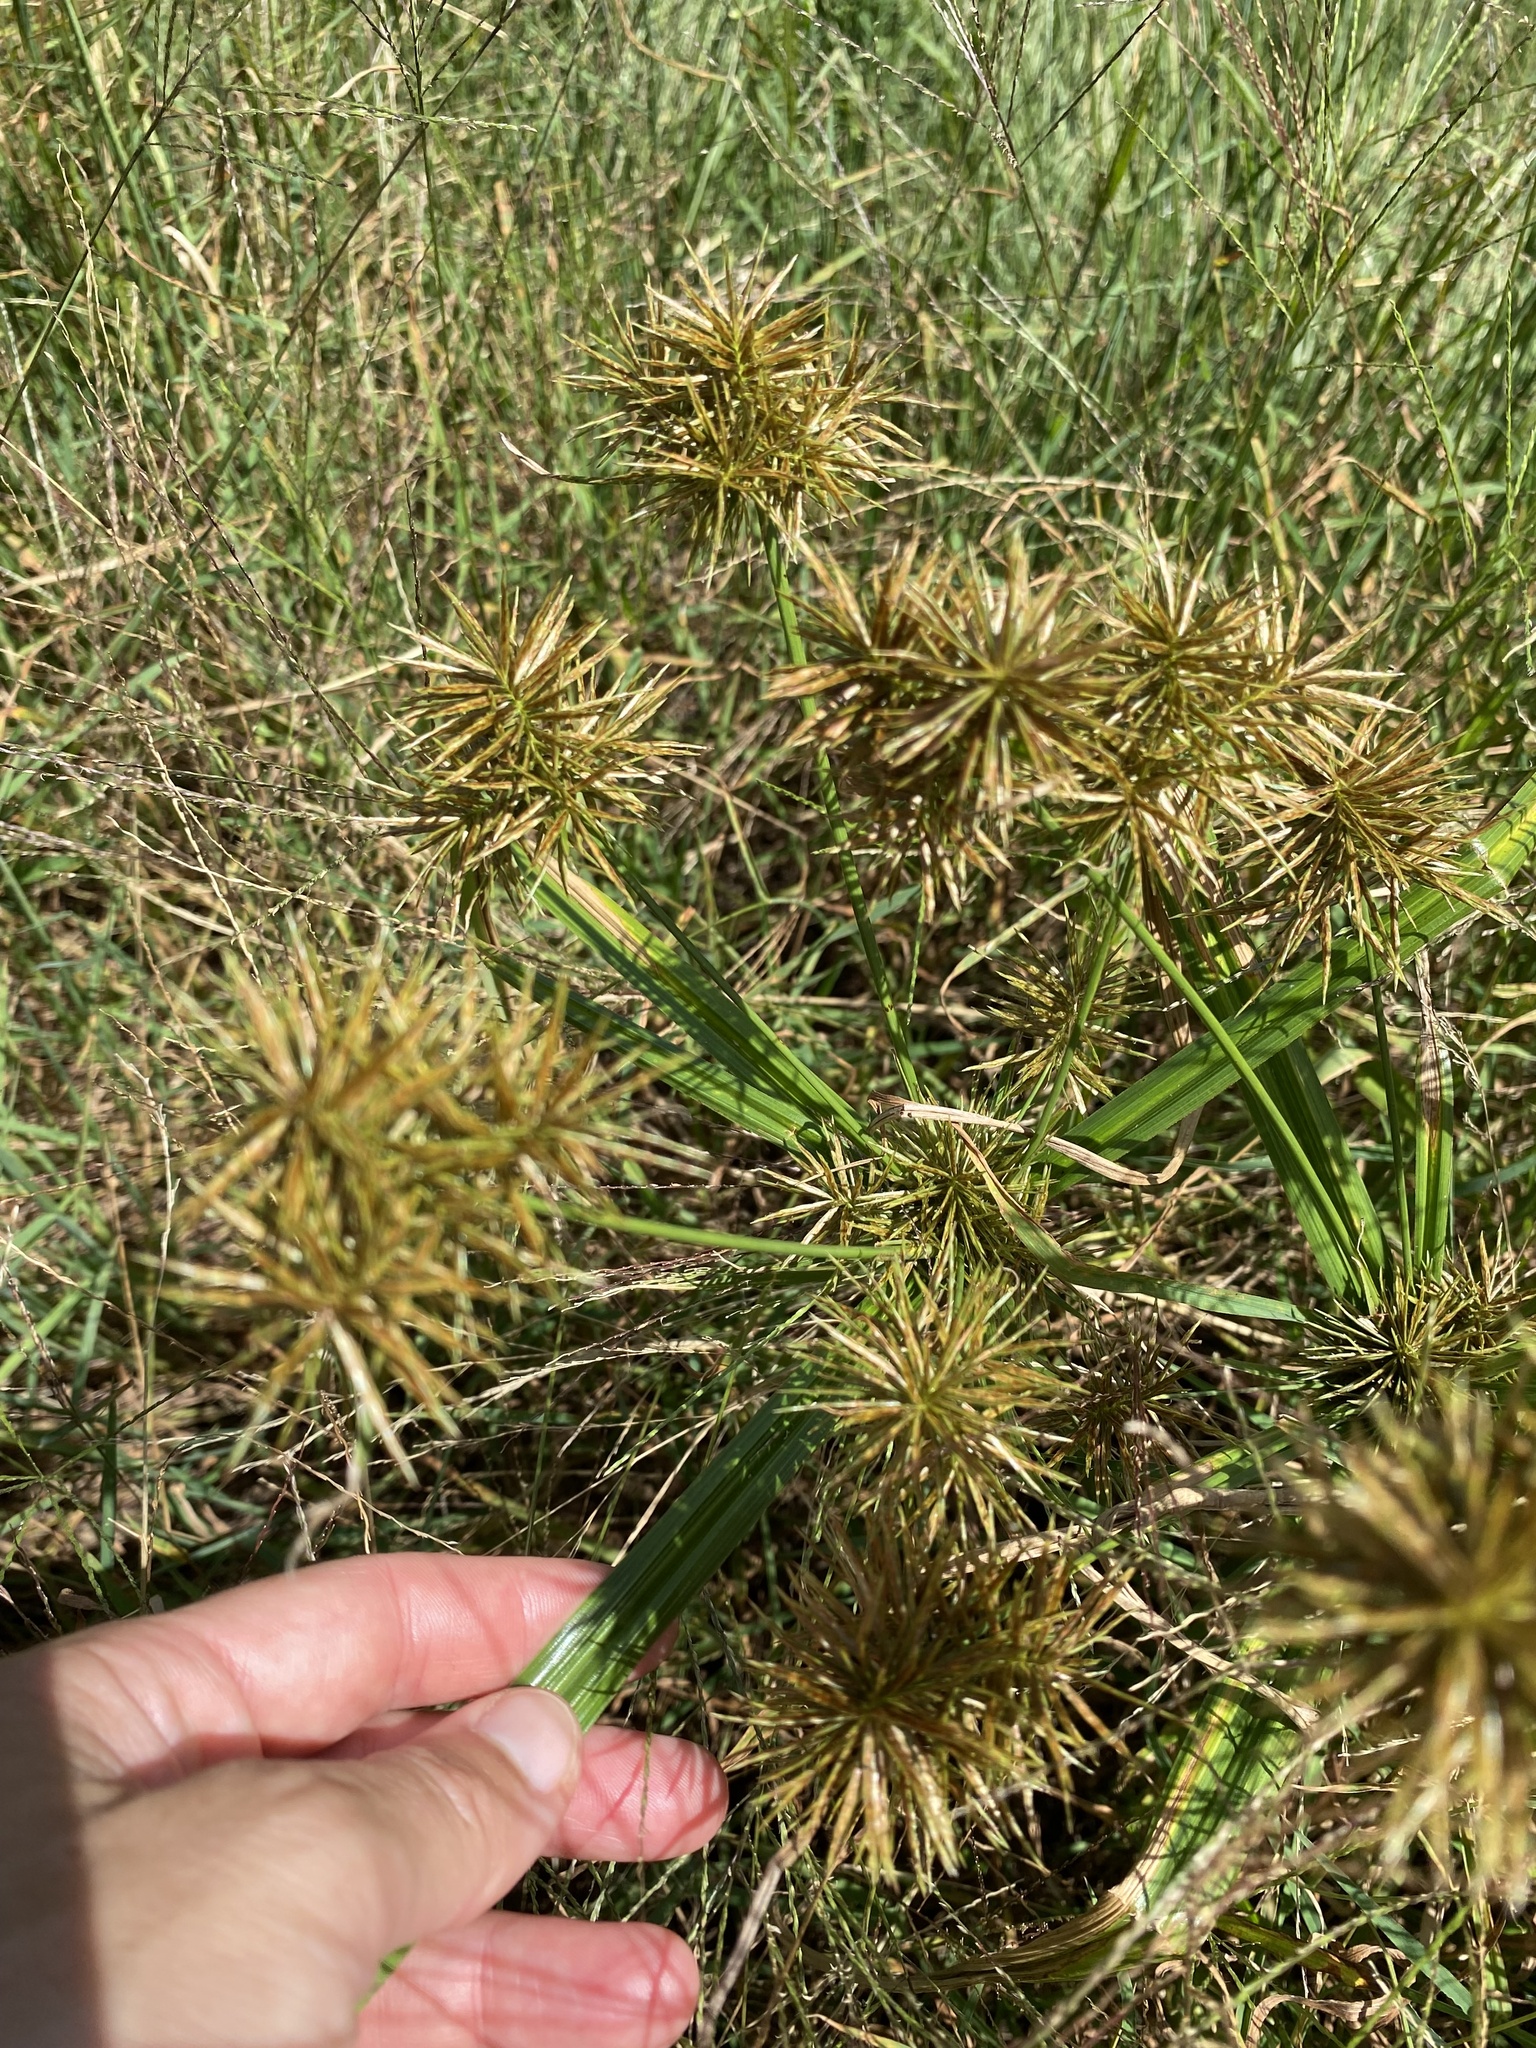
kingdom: Plantae
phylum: Tracheophyta
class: Liliopsida
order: Poales
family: Cyperaceae
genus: Cyperus
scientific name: Cyperus congestus
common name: Dense flat sedge
